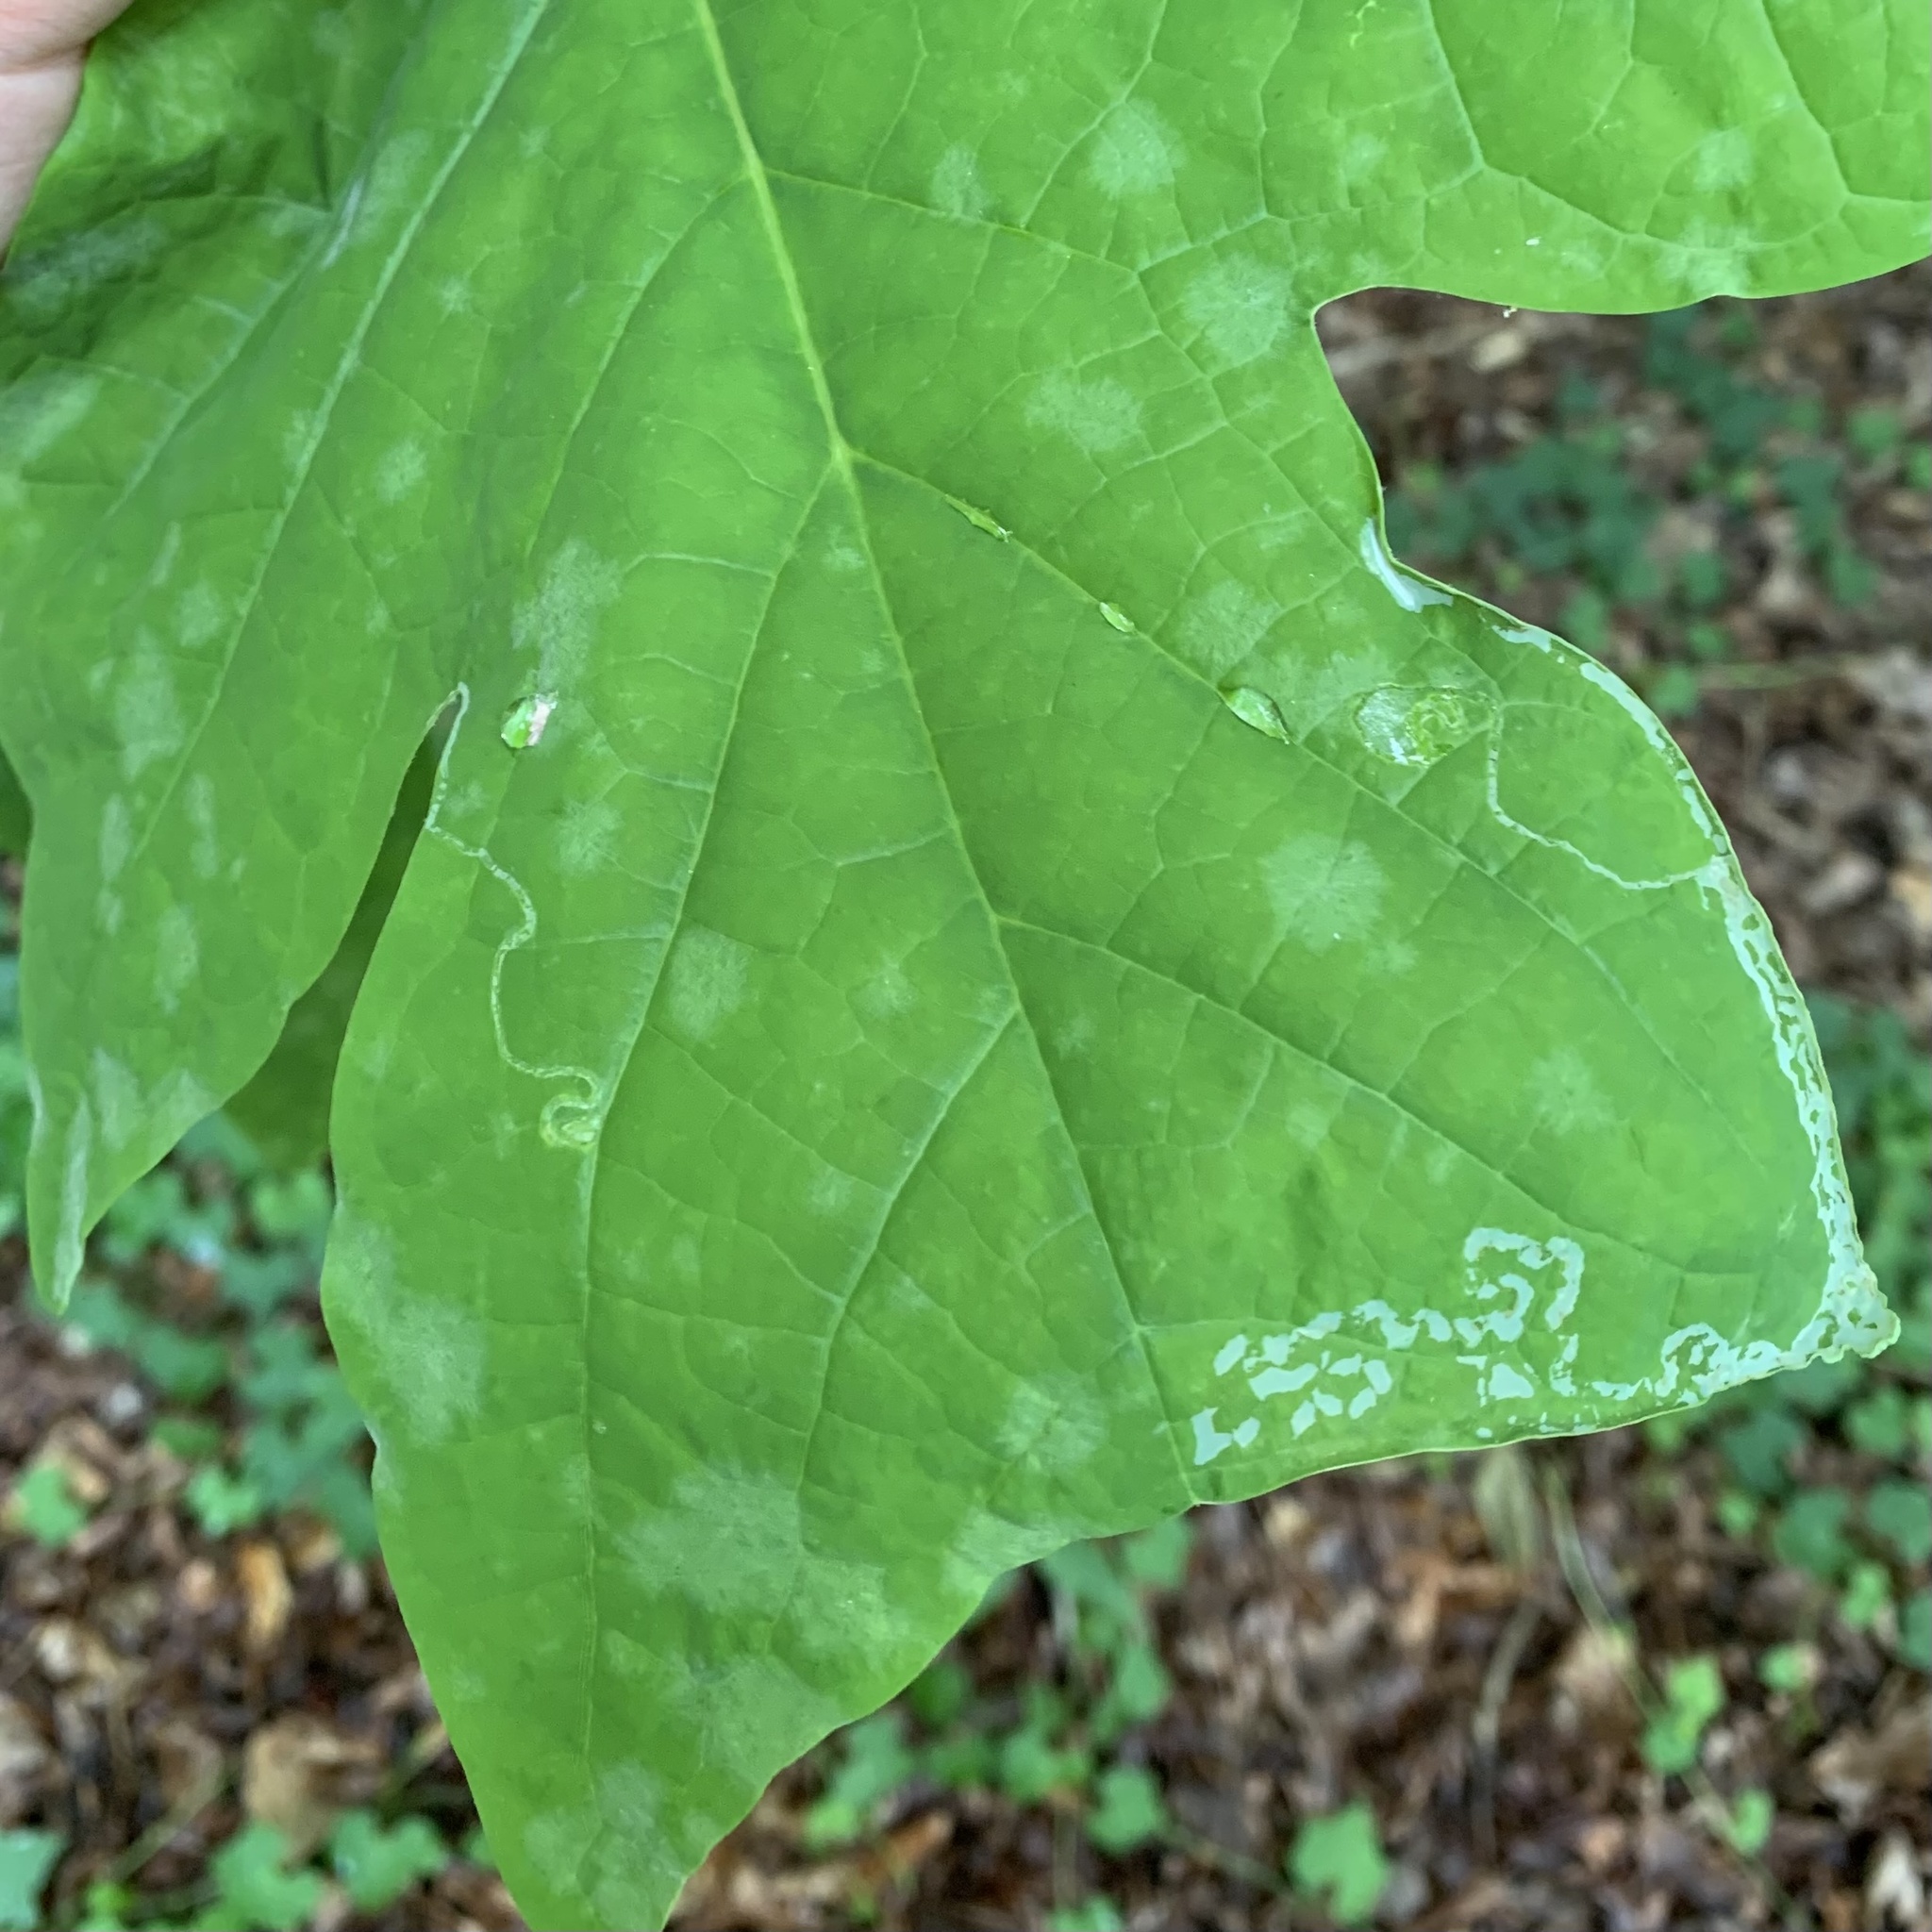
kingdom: Animalia
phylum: Arthropoda
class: Insecta
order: Lepidoptera
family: Gracillariidae
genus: Phyllocnistis
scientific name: Phyllocnistis liriodendronella
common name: Tulip tree leaf miner
